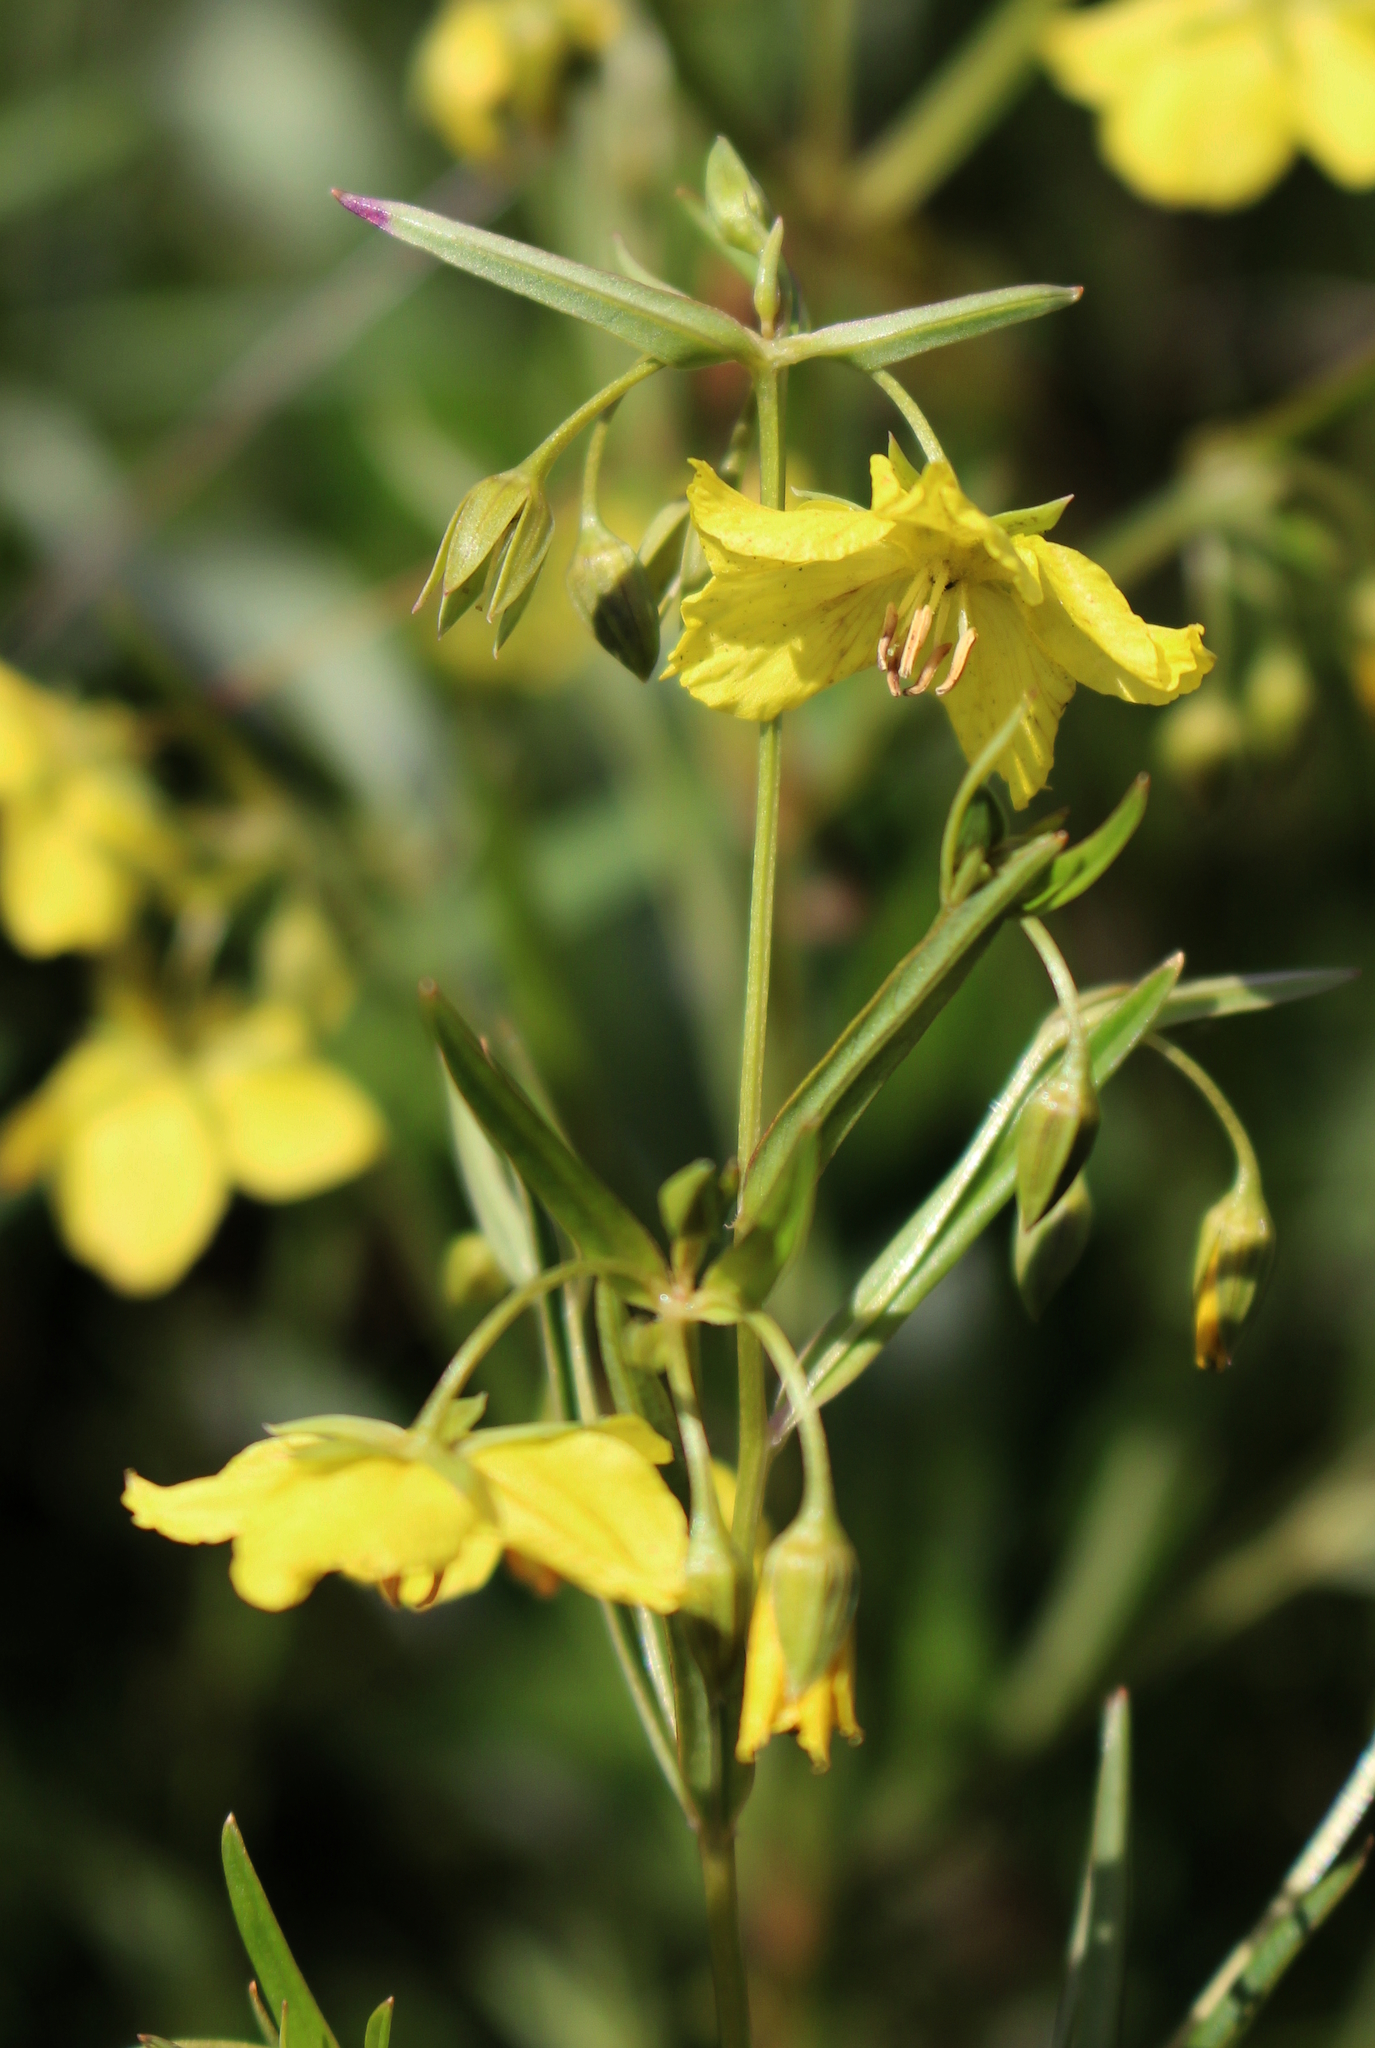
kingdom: Plantae
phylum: Tracheophyta
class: Magnoliopsida
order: Ericales
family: Primulaceae
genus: Lysimachia
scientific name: Lysimachia quadriflora
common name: Four-flowered loosestrife
